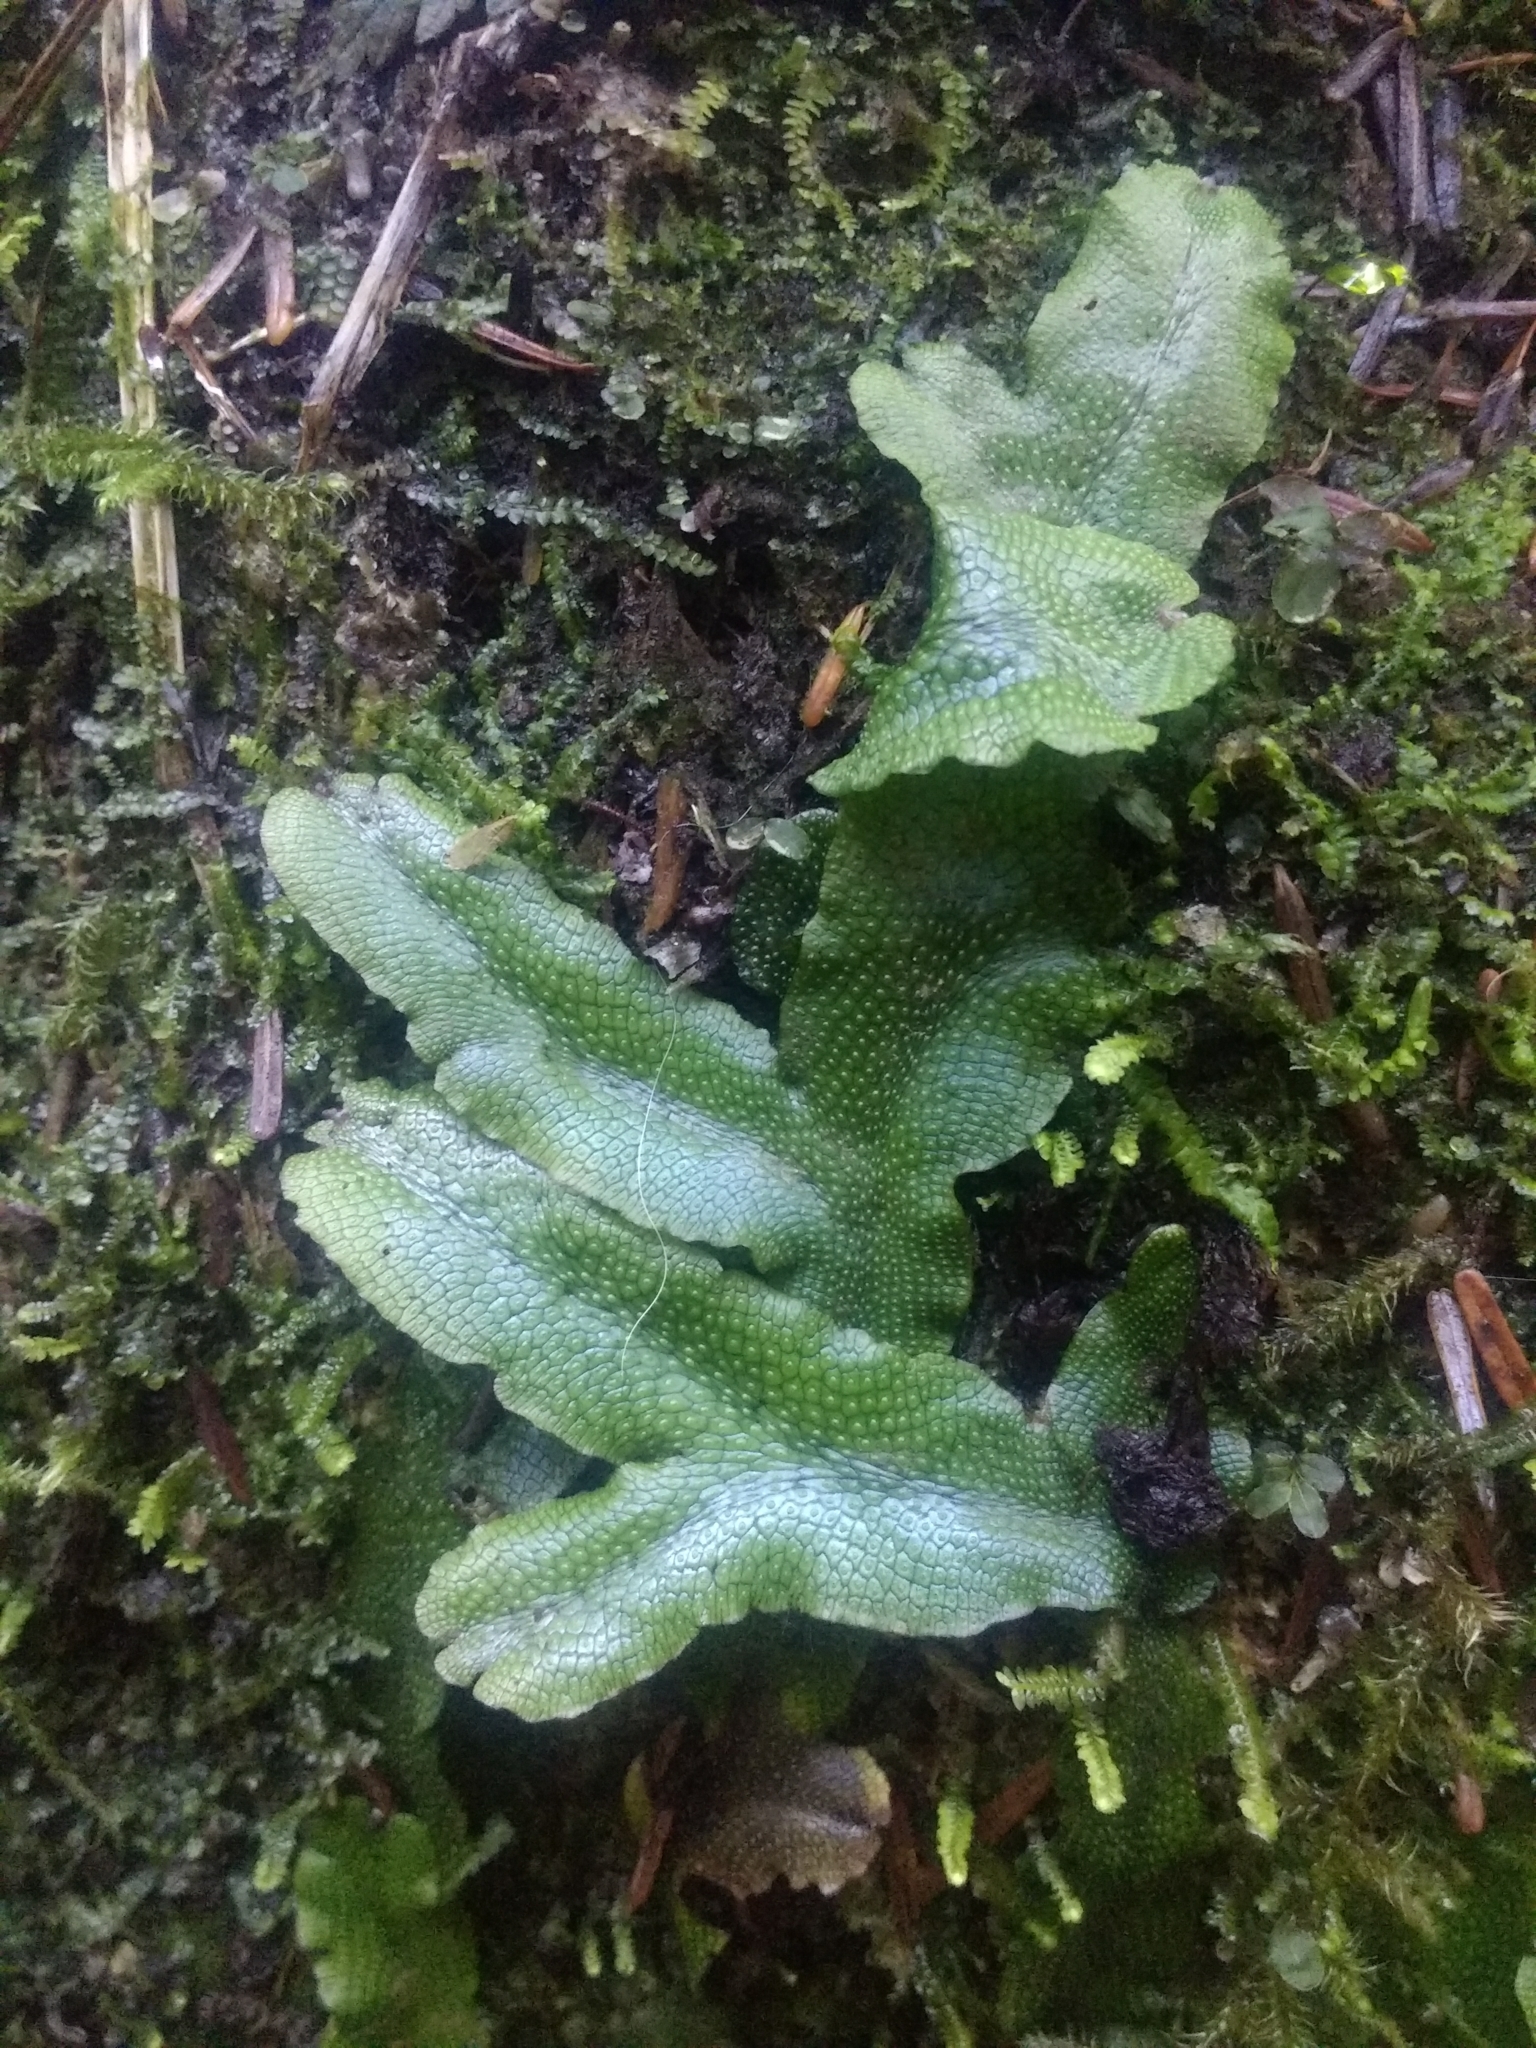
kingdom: Plantae
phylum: Marchantiophyta
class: Marchantiopsida
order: Marchantiales
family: Conocephalaceae
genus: Conocephalum
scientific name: Conocephalum conicum
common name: Great scented liverwort
